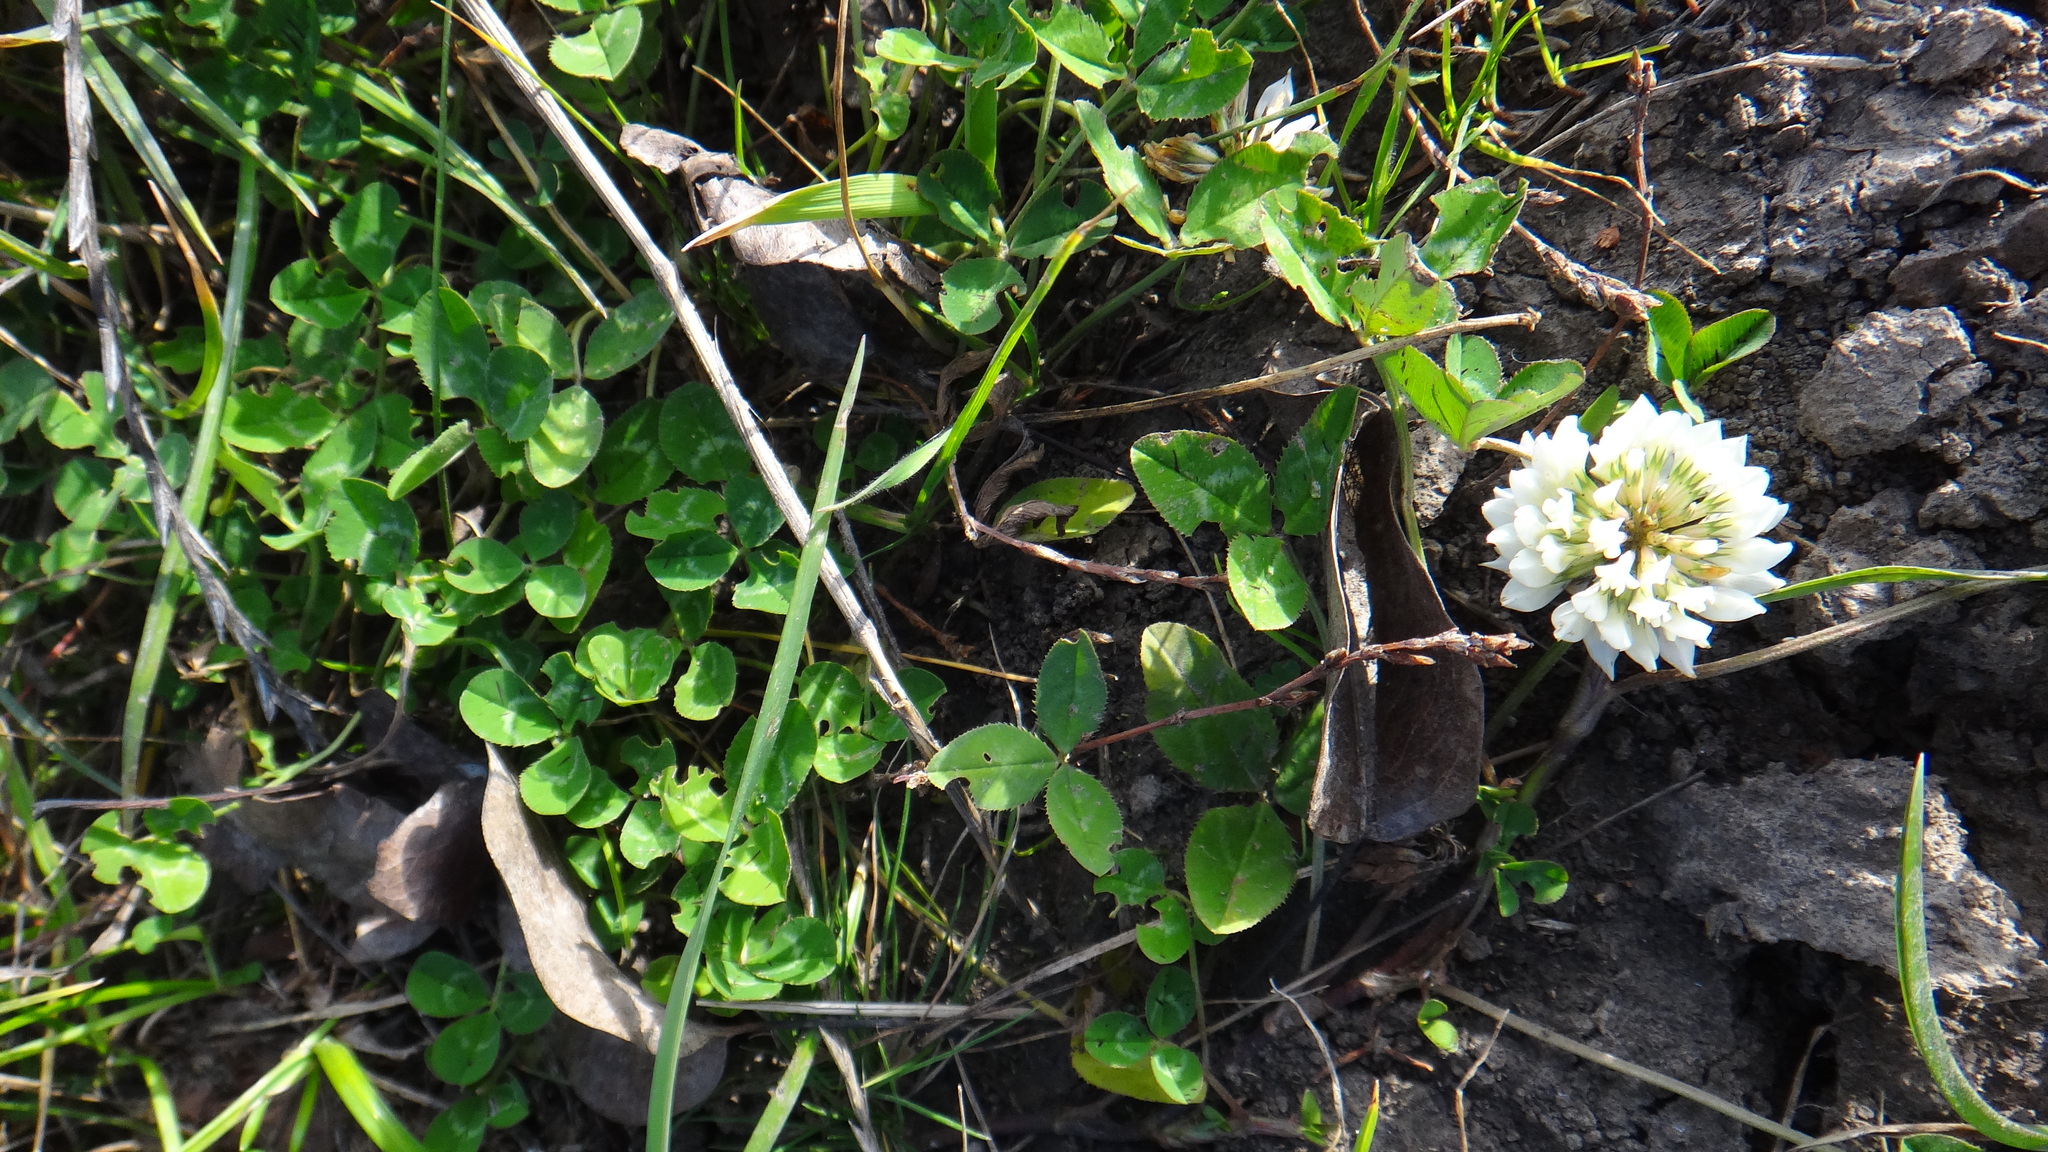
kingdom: Plantae
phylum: Tracheophyta
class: Magnoliopsida
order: Fabales
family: Fabaceae
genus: Trifolium
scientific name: Trifolium repens
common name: White clover
